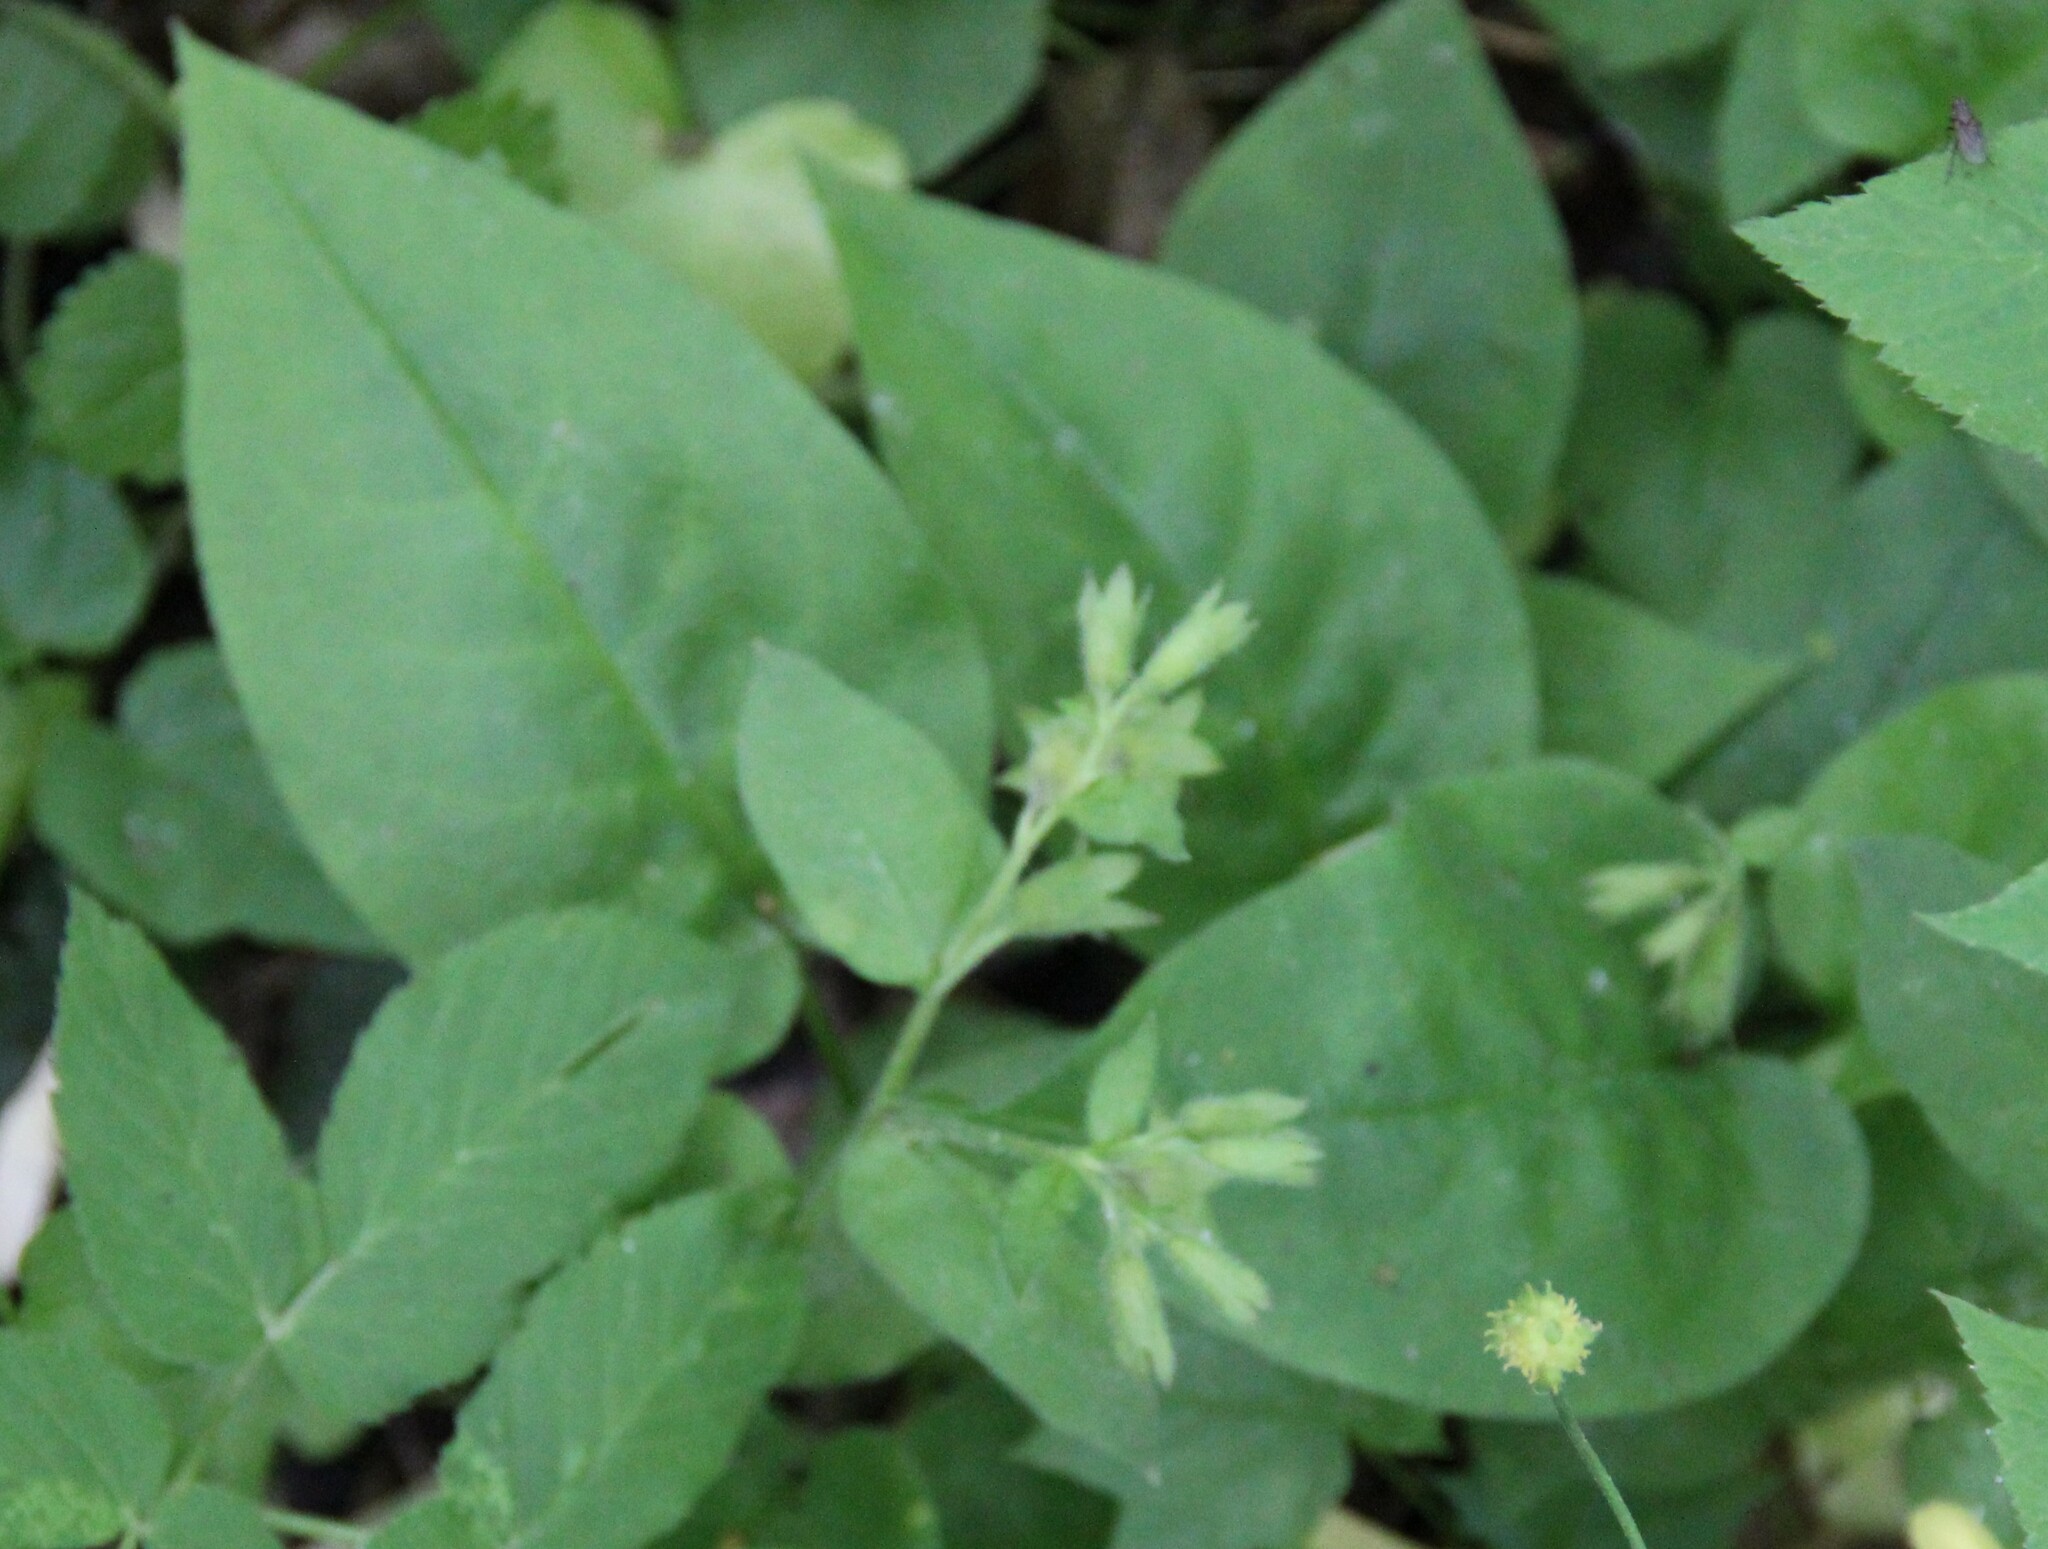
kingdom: Plantae
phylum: Tracheophyta
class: Magnoliopsida
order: Boraginales
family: Boraginaceae
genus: Pulmonaria
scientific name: Pulmonaria obscura
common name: Suffolk lungwort
